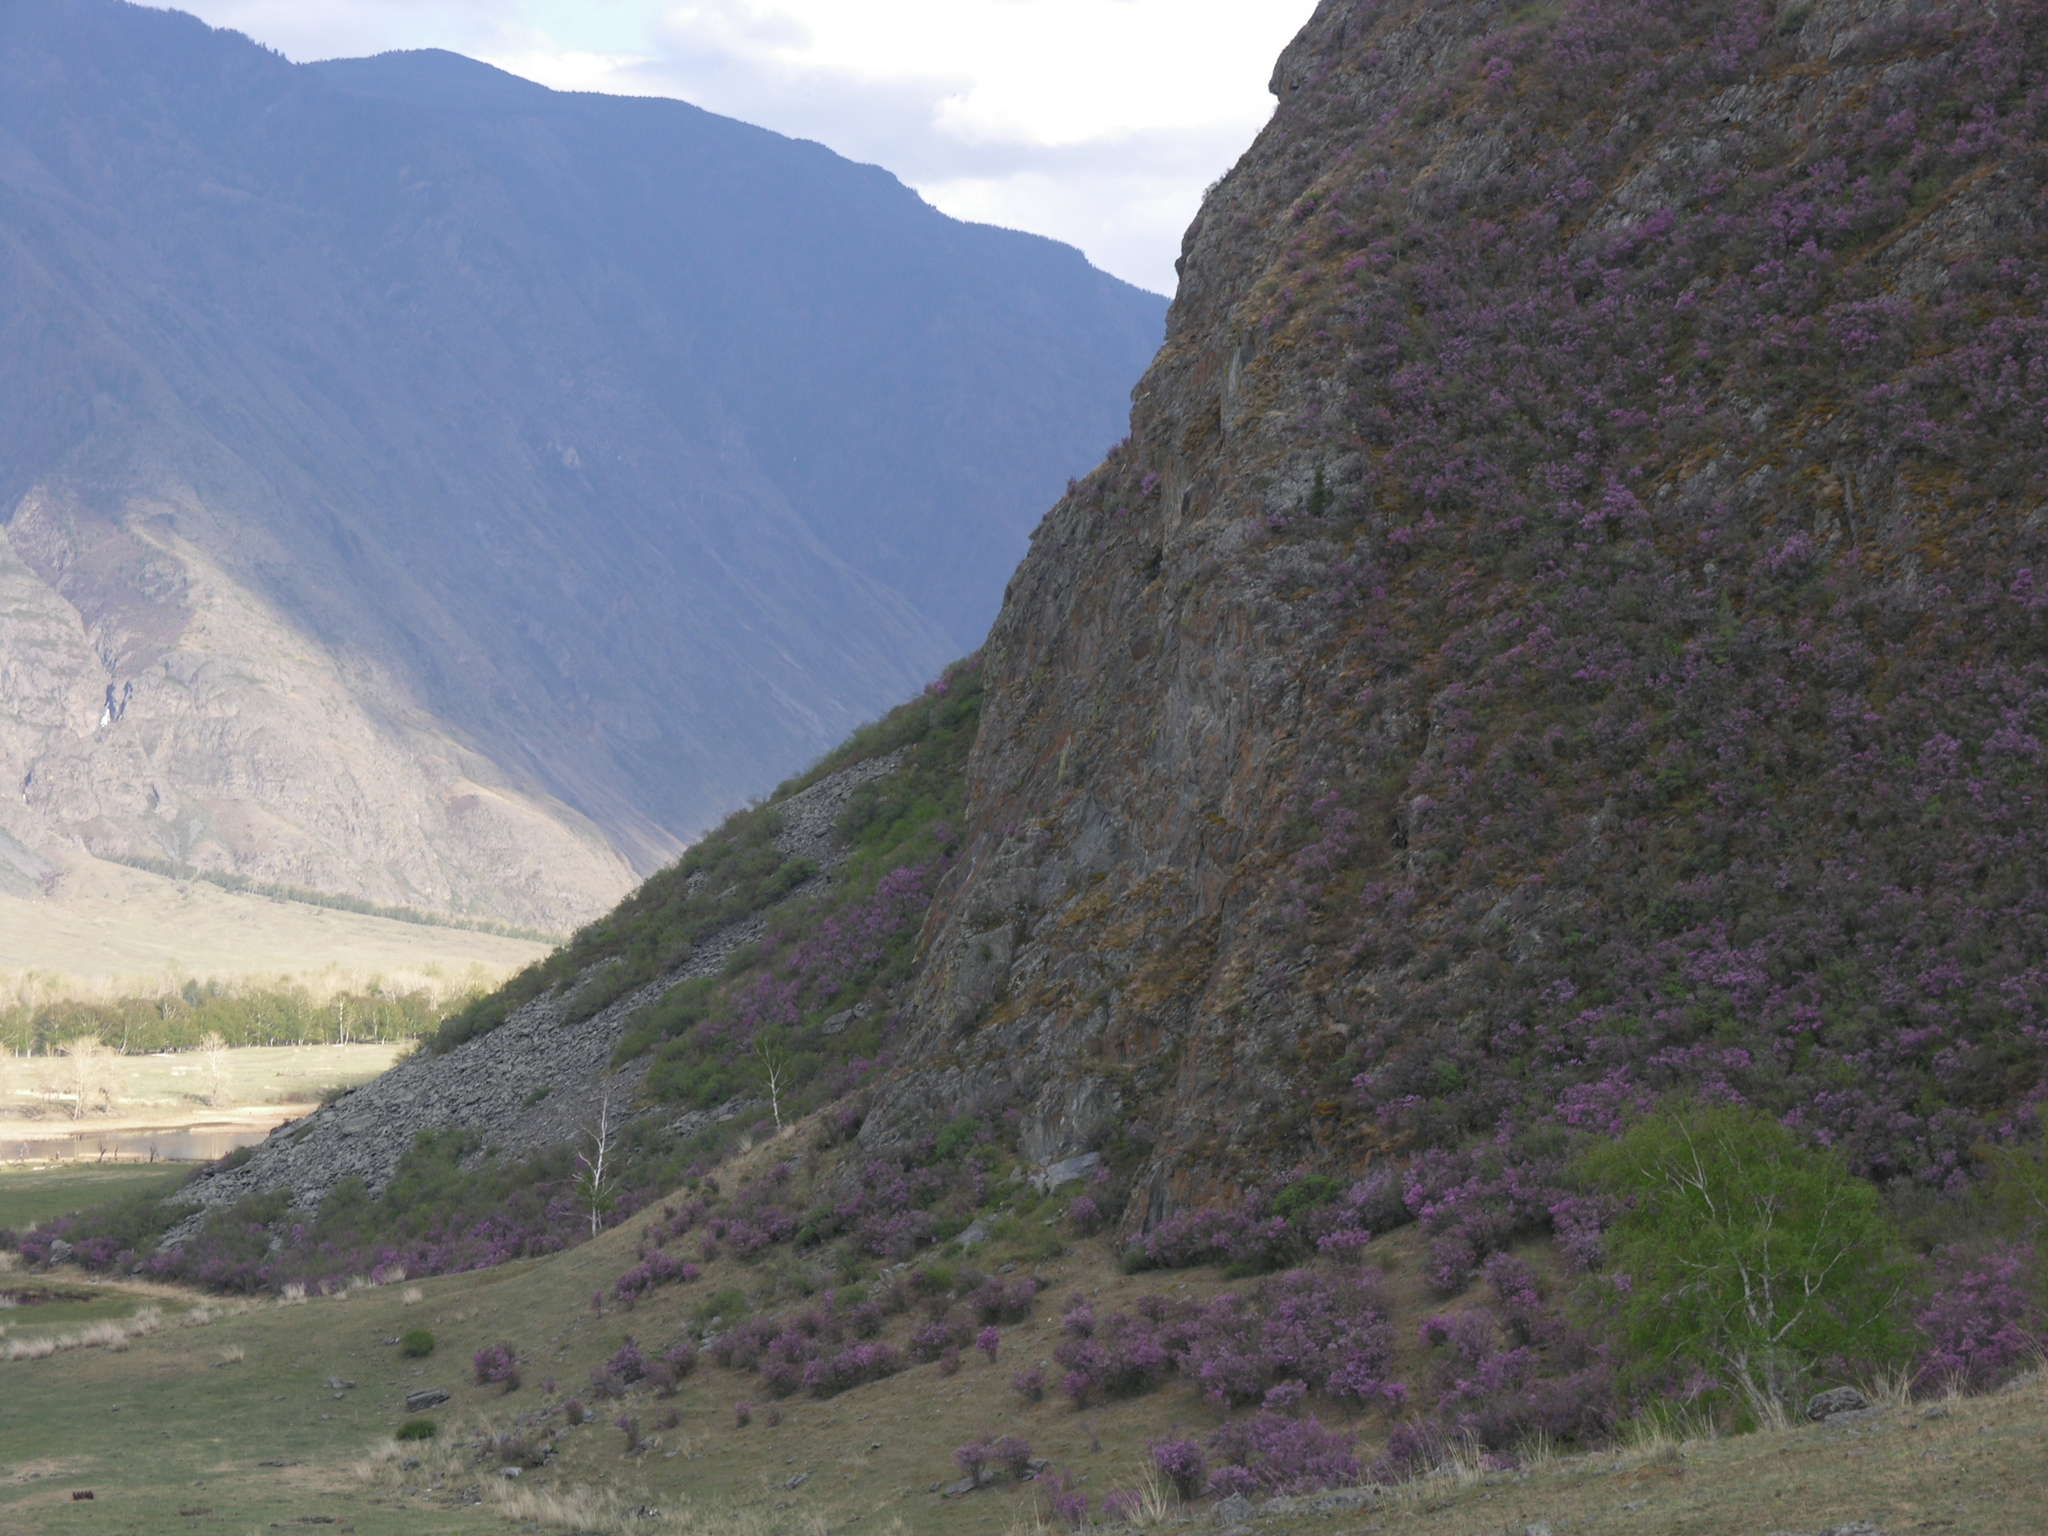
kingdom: Plantae
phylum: Tracheophyta
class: Magnoliopsida
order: Ericales
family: Ericaceae
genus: Rhododendron
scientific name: Rhododendron dauricum
